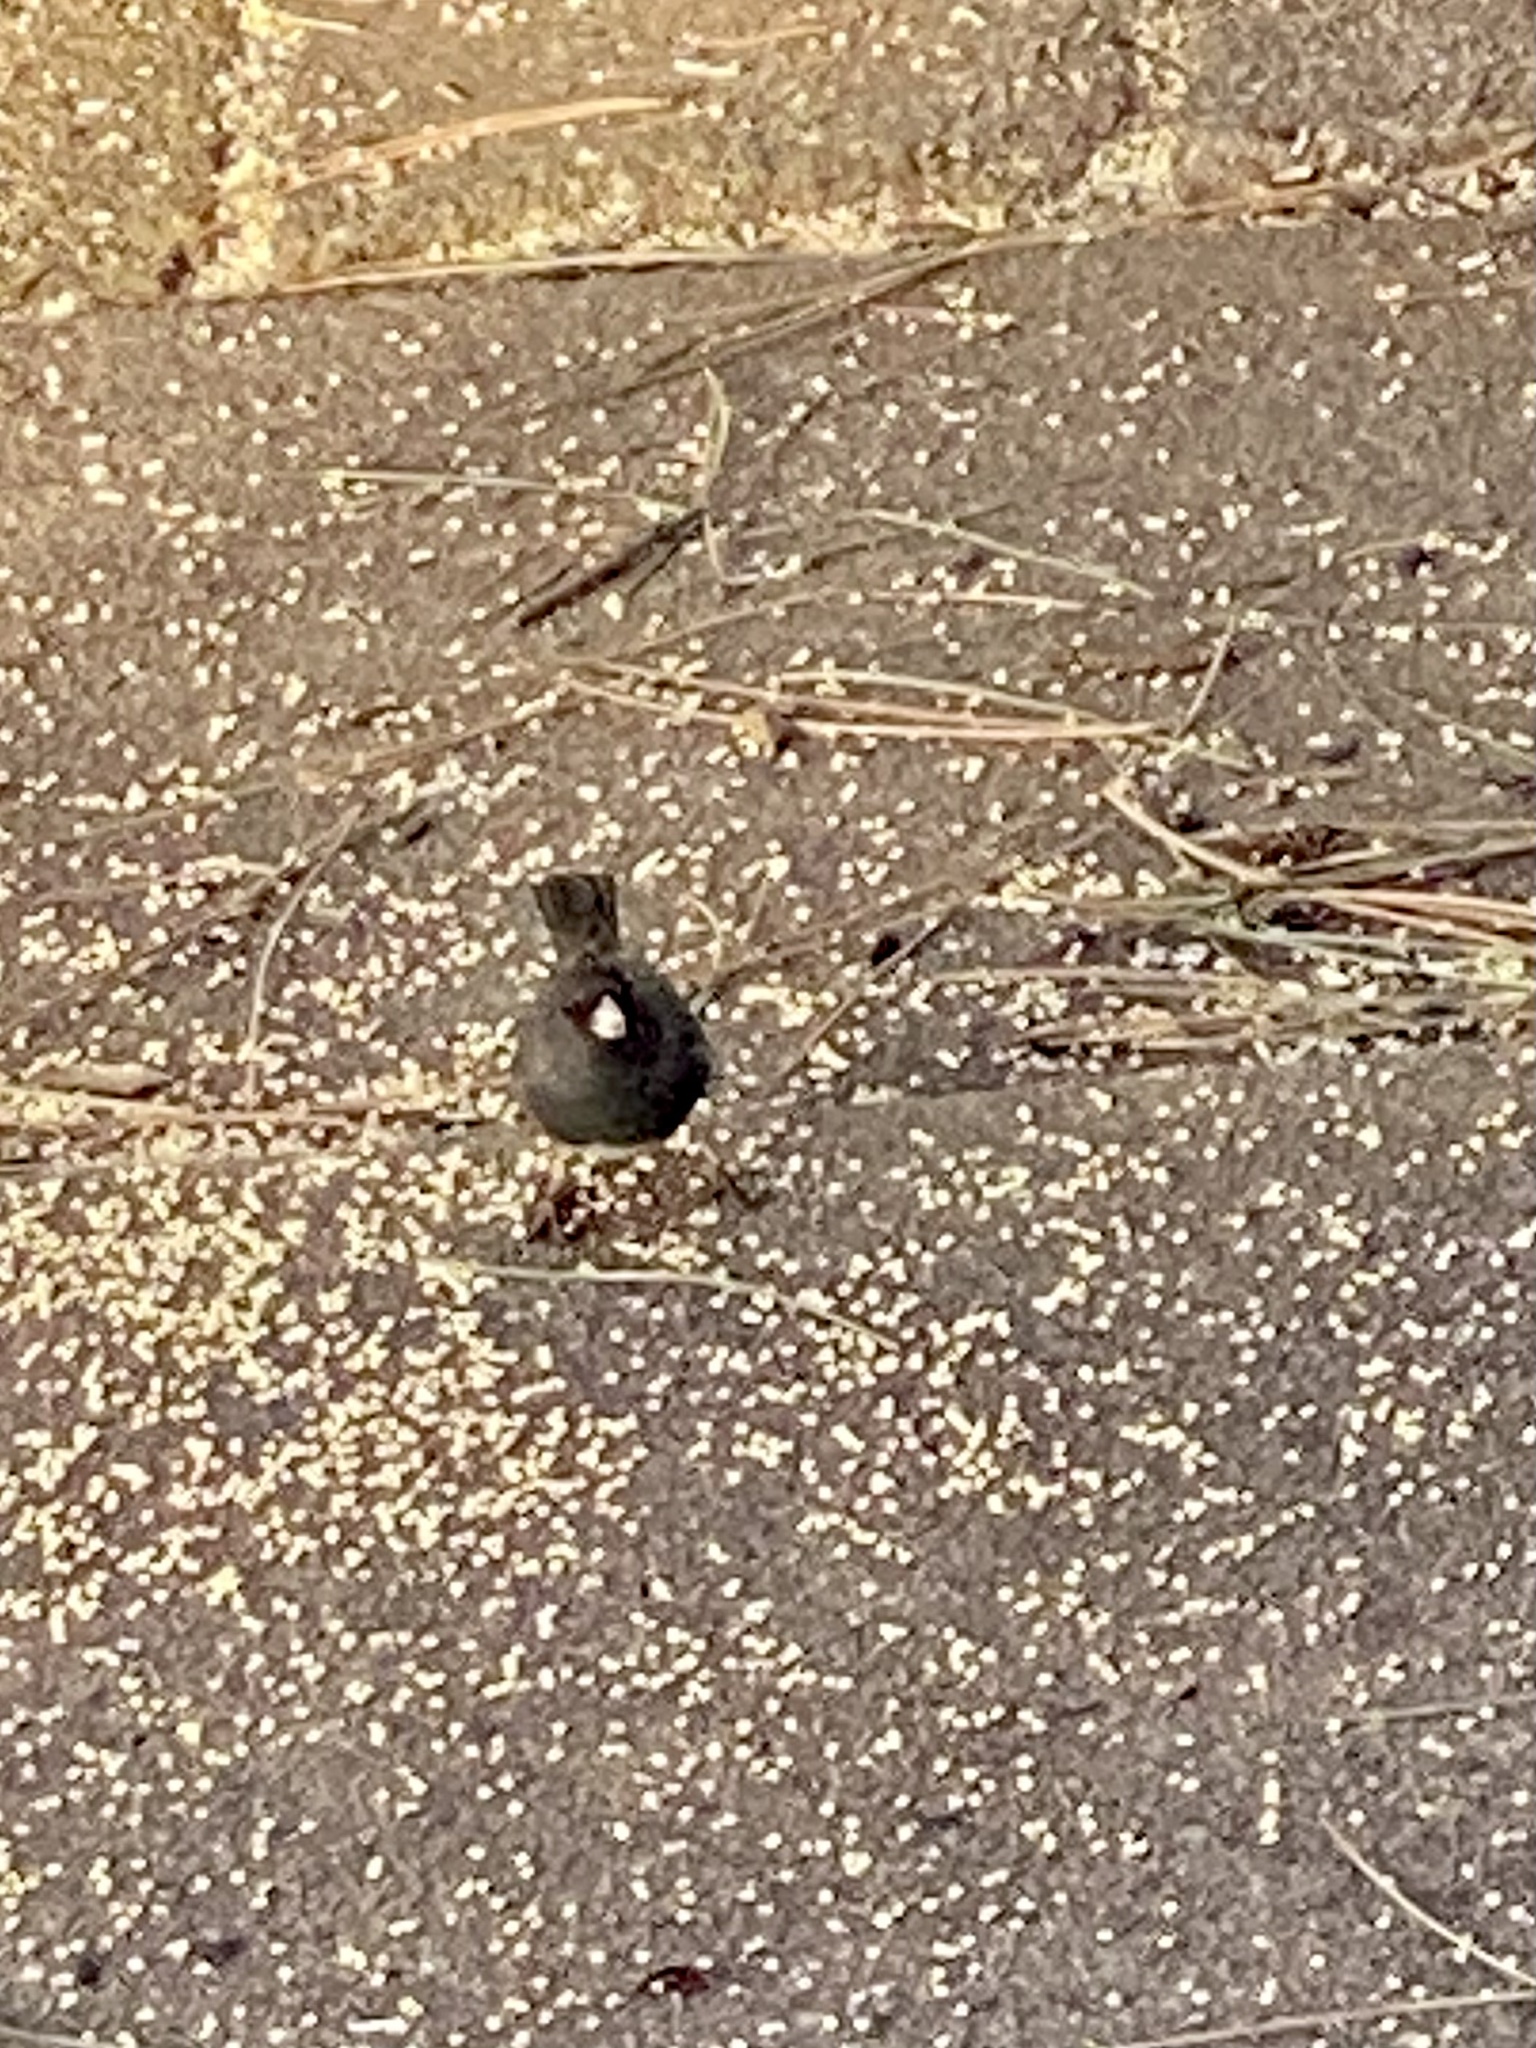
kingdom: Animalia
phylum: Chordata
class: Aves
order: Passeriformes
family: Passerellidae
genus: Junco
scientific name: Junco hyemalis
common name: Dark-eyed junco
